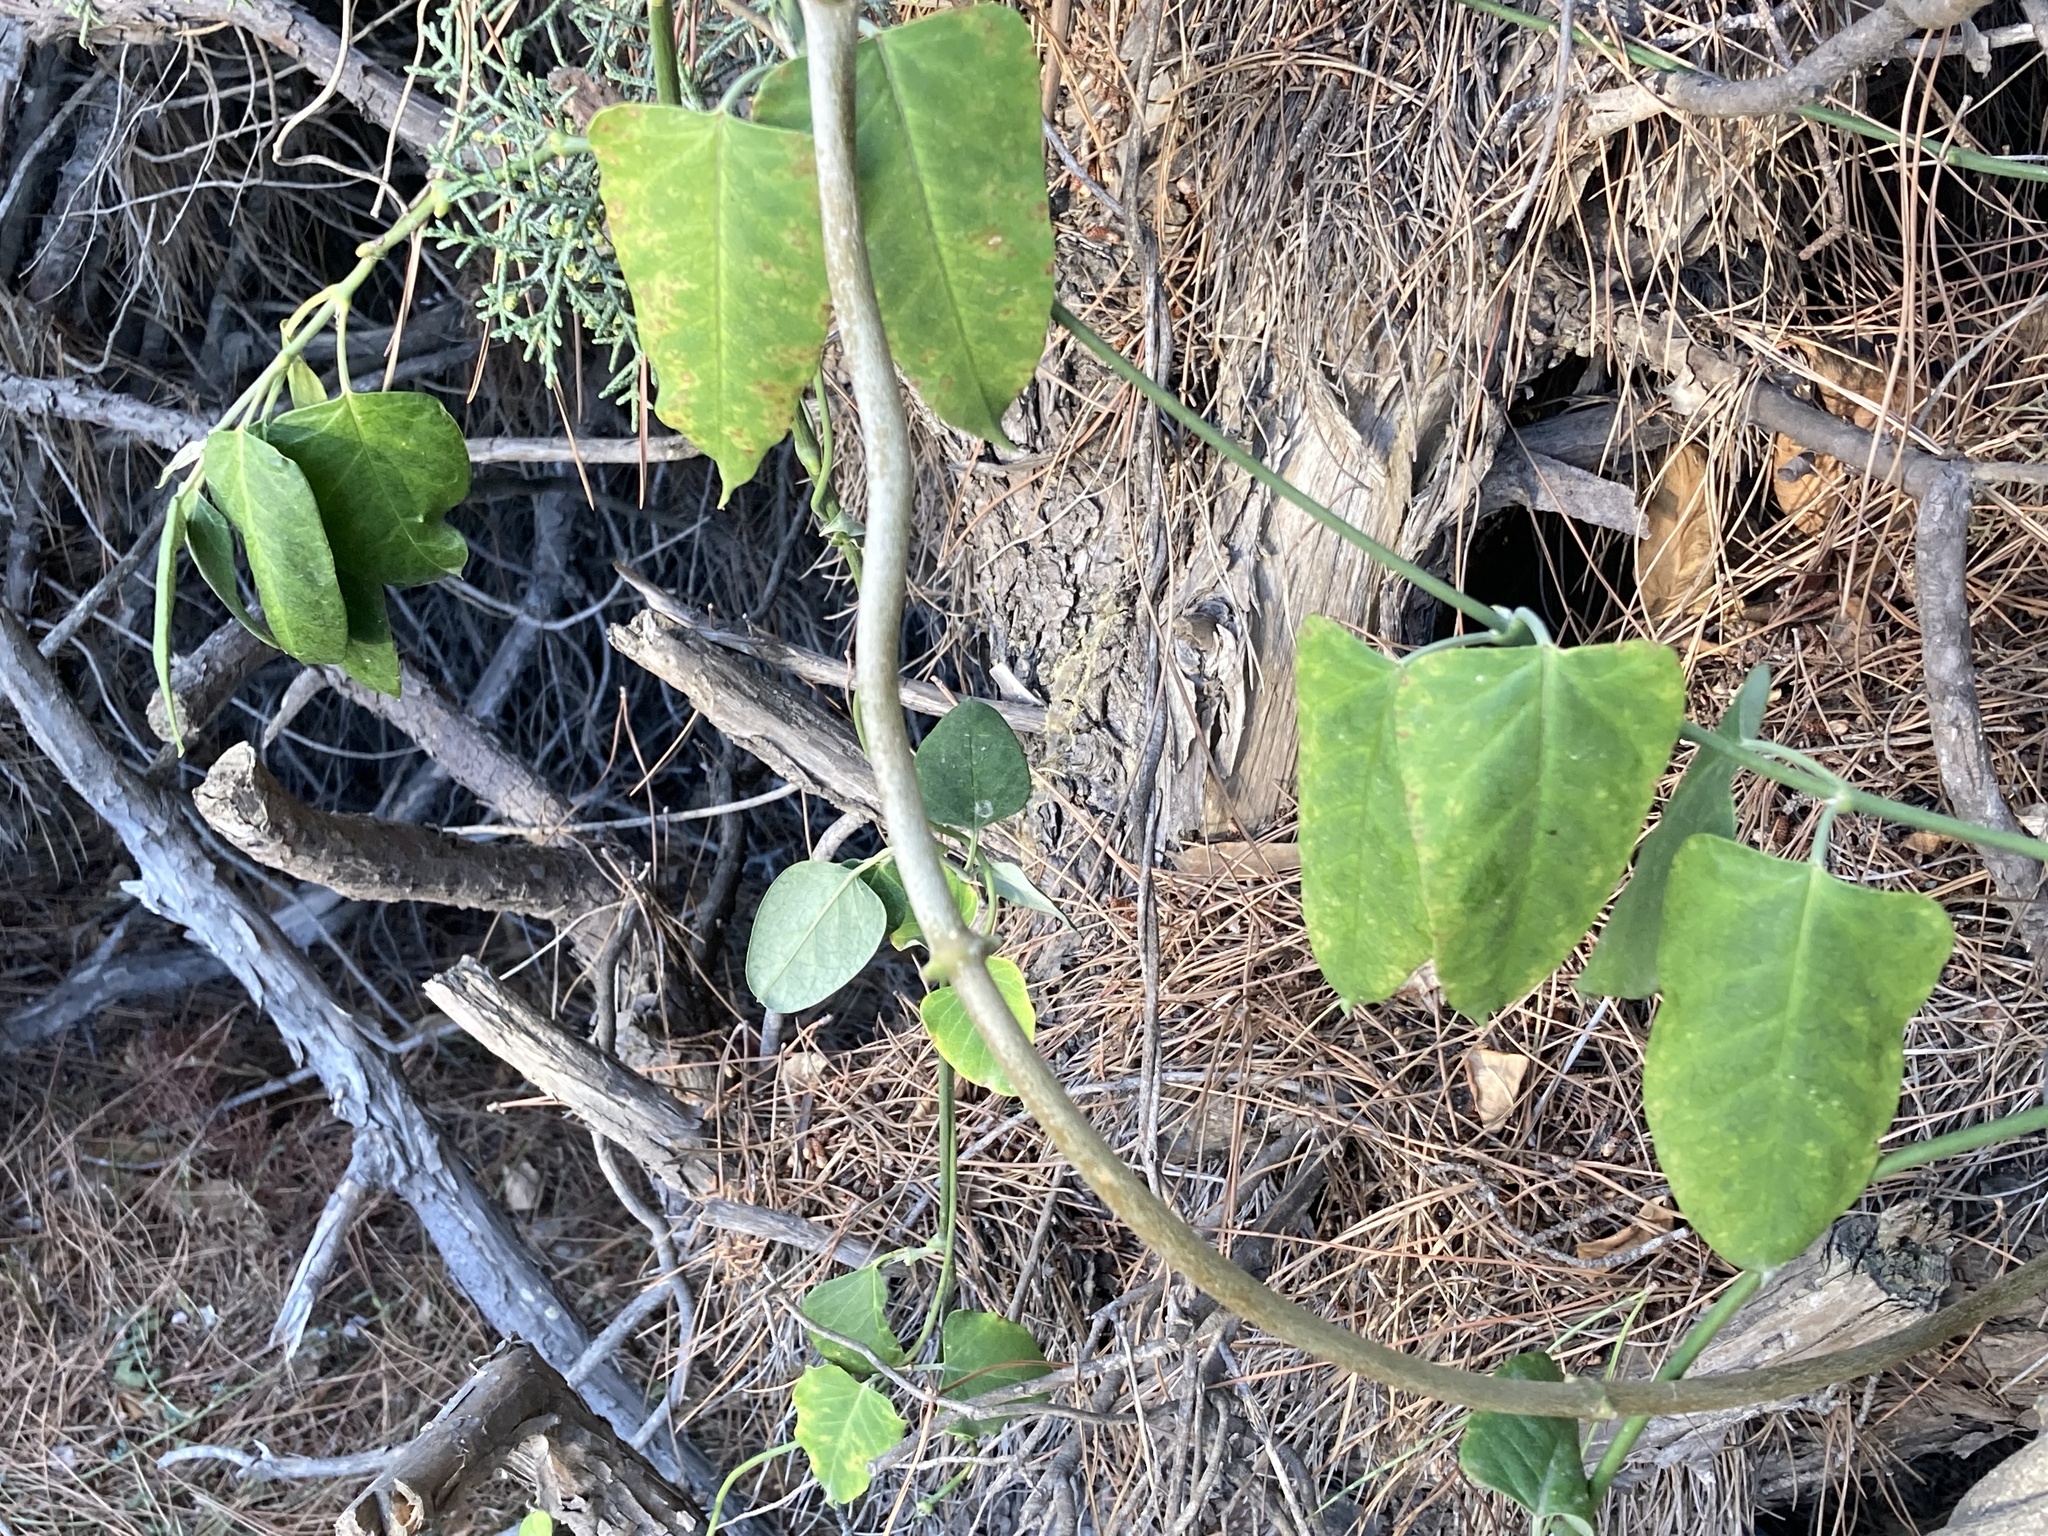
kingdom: Plantae
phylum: Tracheophyta
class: Magnoliopsida
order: Gentianales
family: Apocynaceae
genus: Araujia
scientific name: Araujia sericifera
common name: White bladderflower
